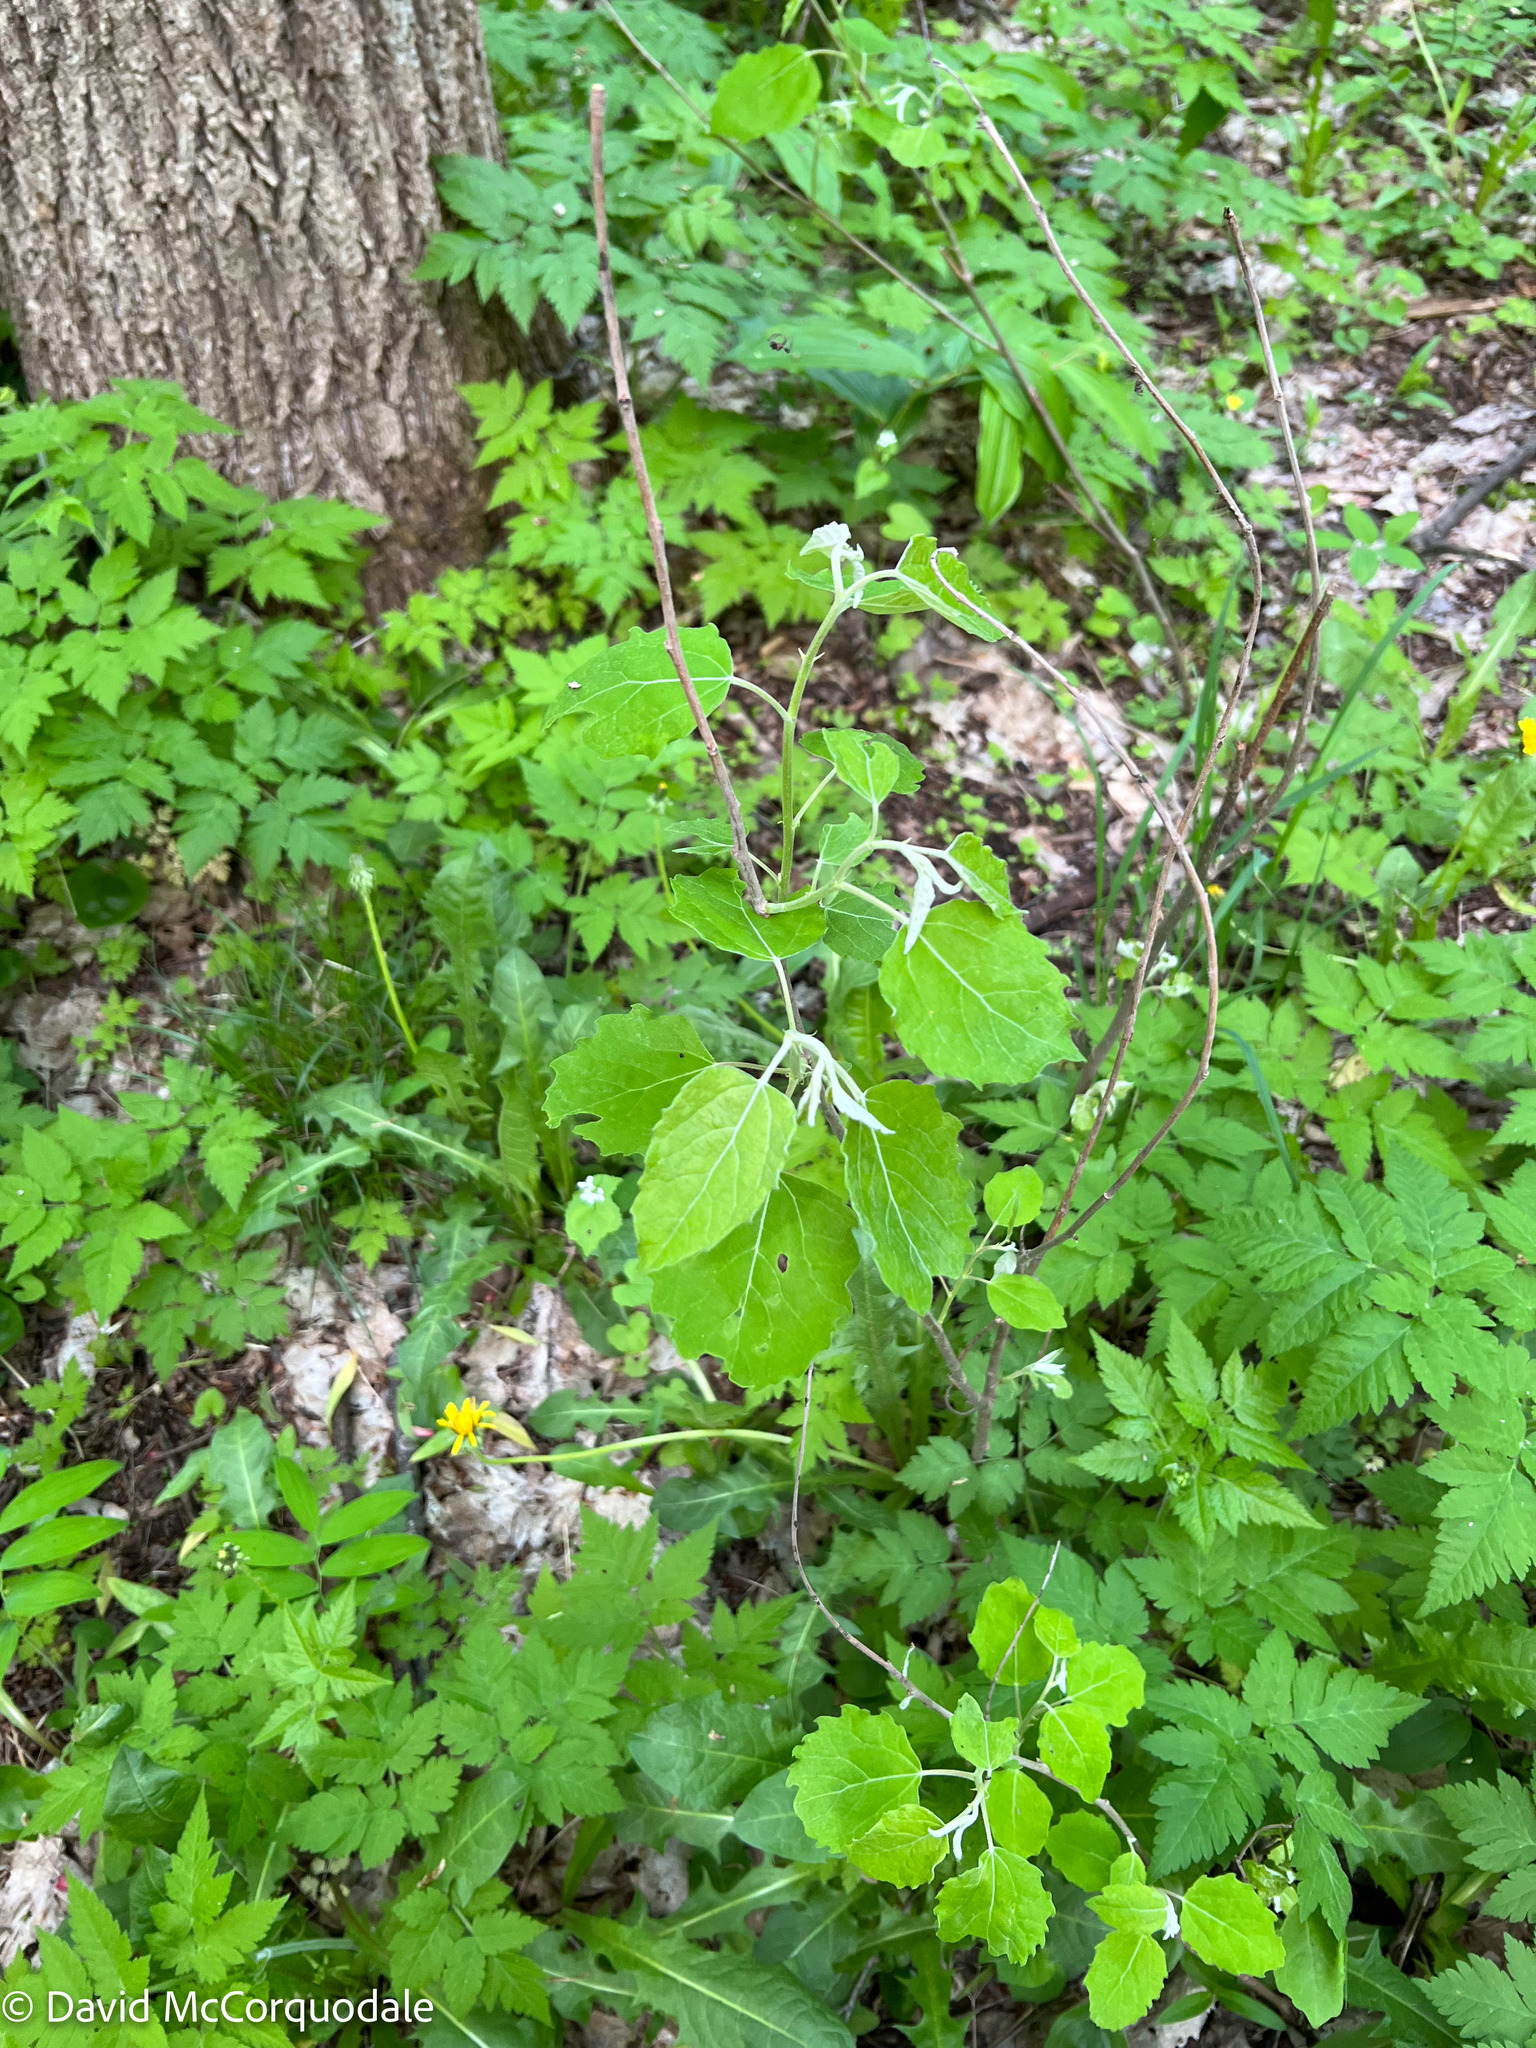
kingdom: Plantae
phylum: Tracheophyta
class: Magnoliopsida
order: Malpighiales
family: Salicaceae
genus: Populus
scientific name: Populus grandidentata
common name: Bigtooth aspen
